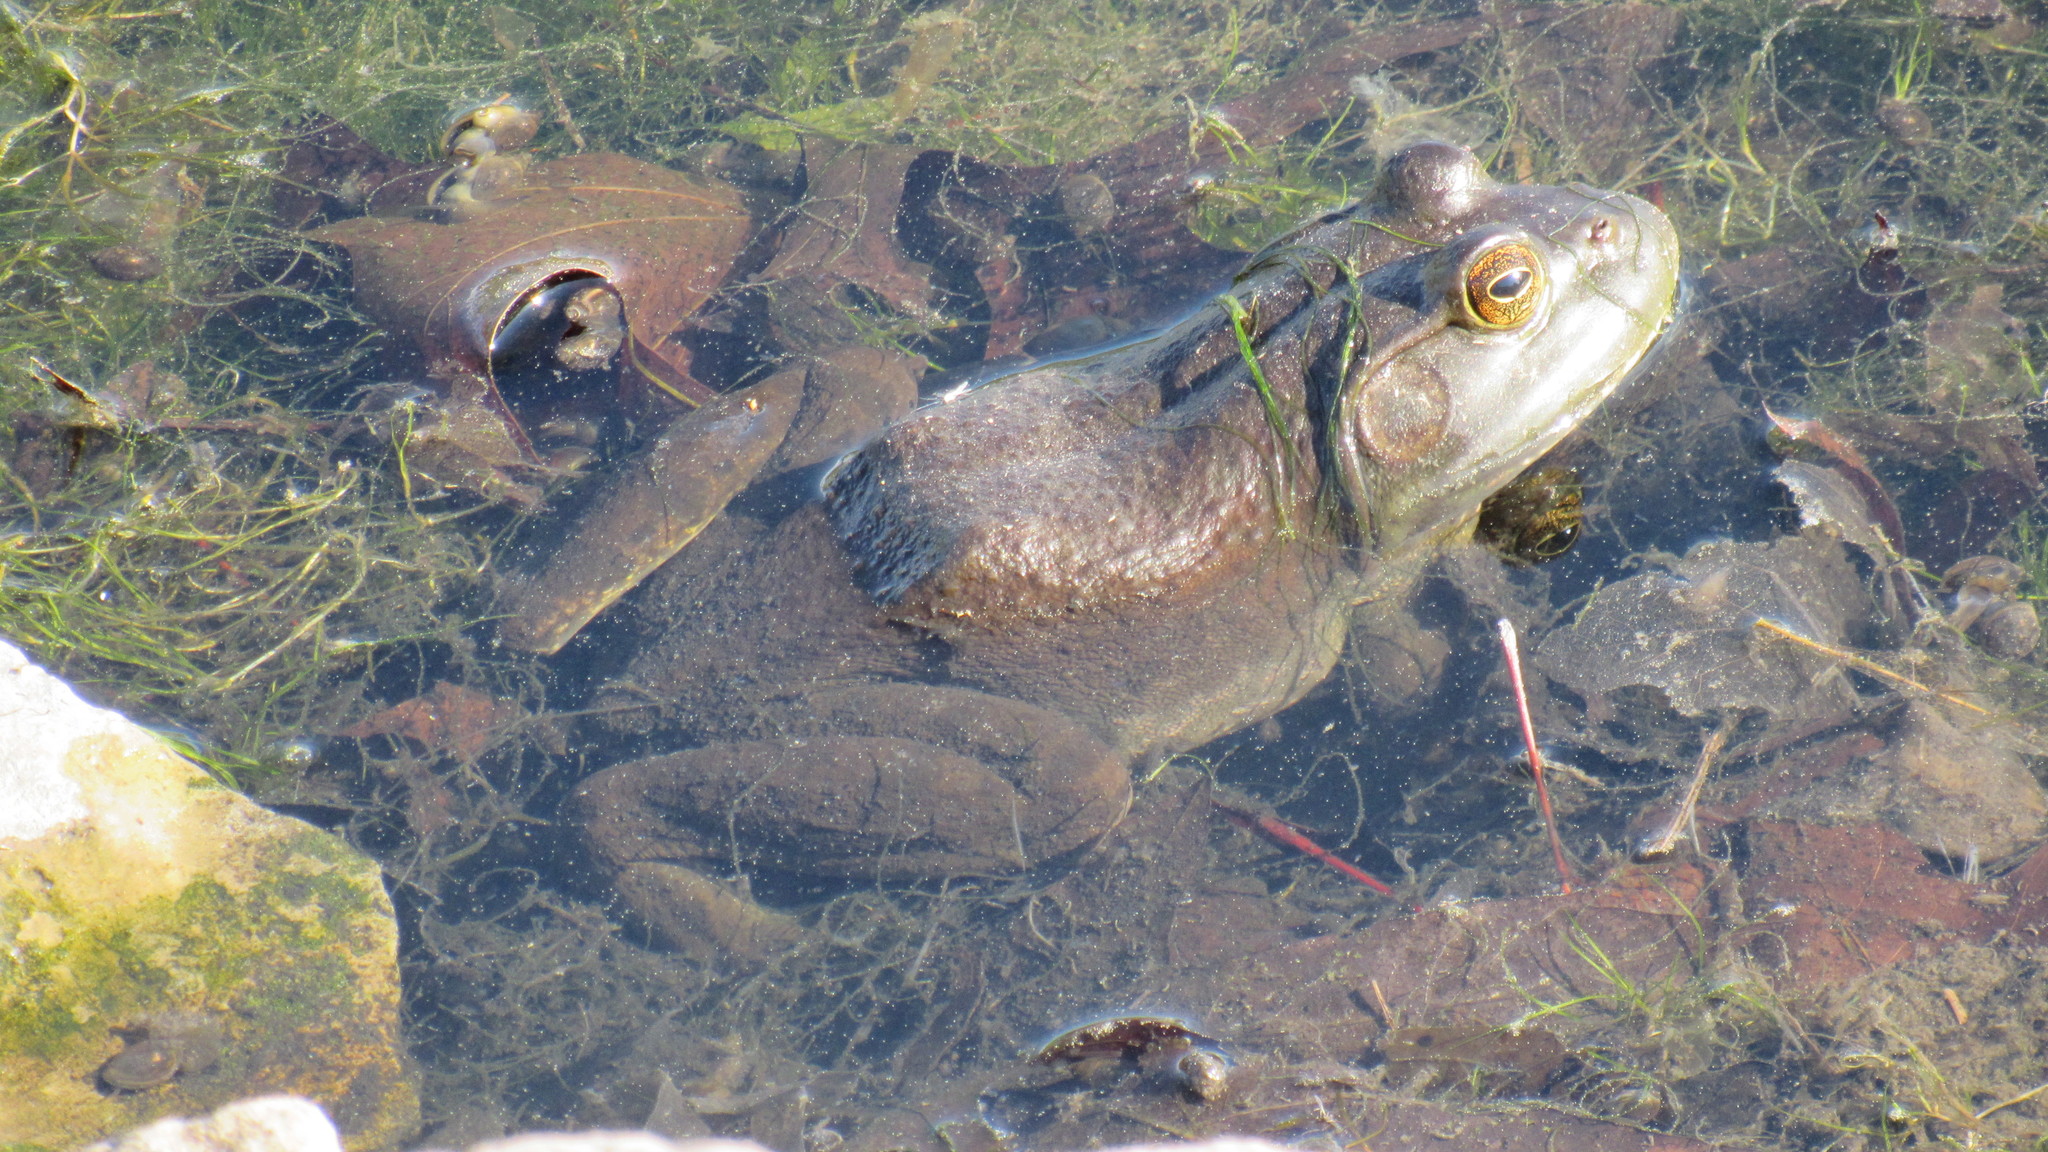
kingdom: Animalia
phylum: Chordata
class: Amphibia
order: Anura
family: Ranidae
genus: Lithobates
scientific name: Lithobates catesbeianus
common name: American bullfrog
